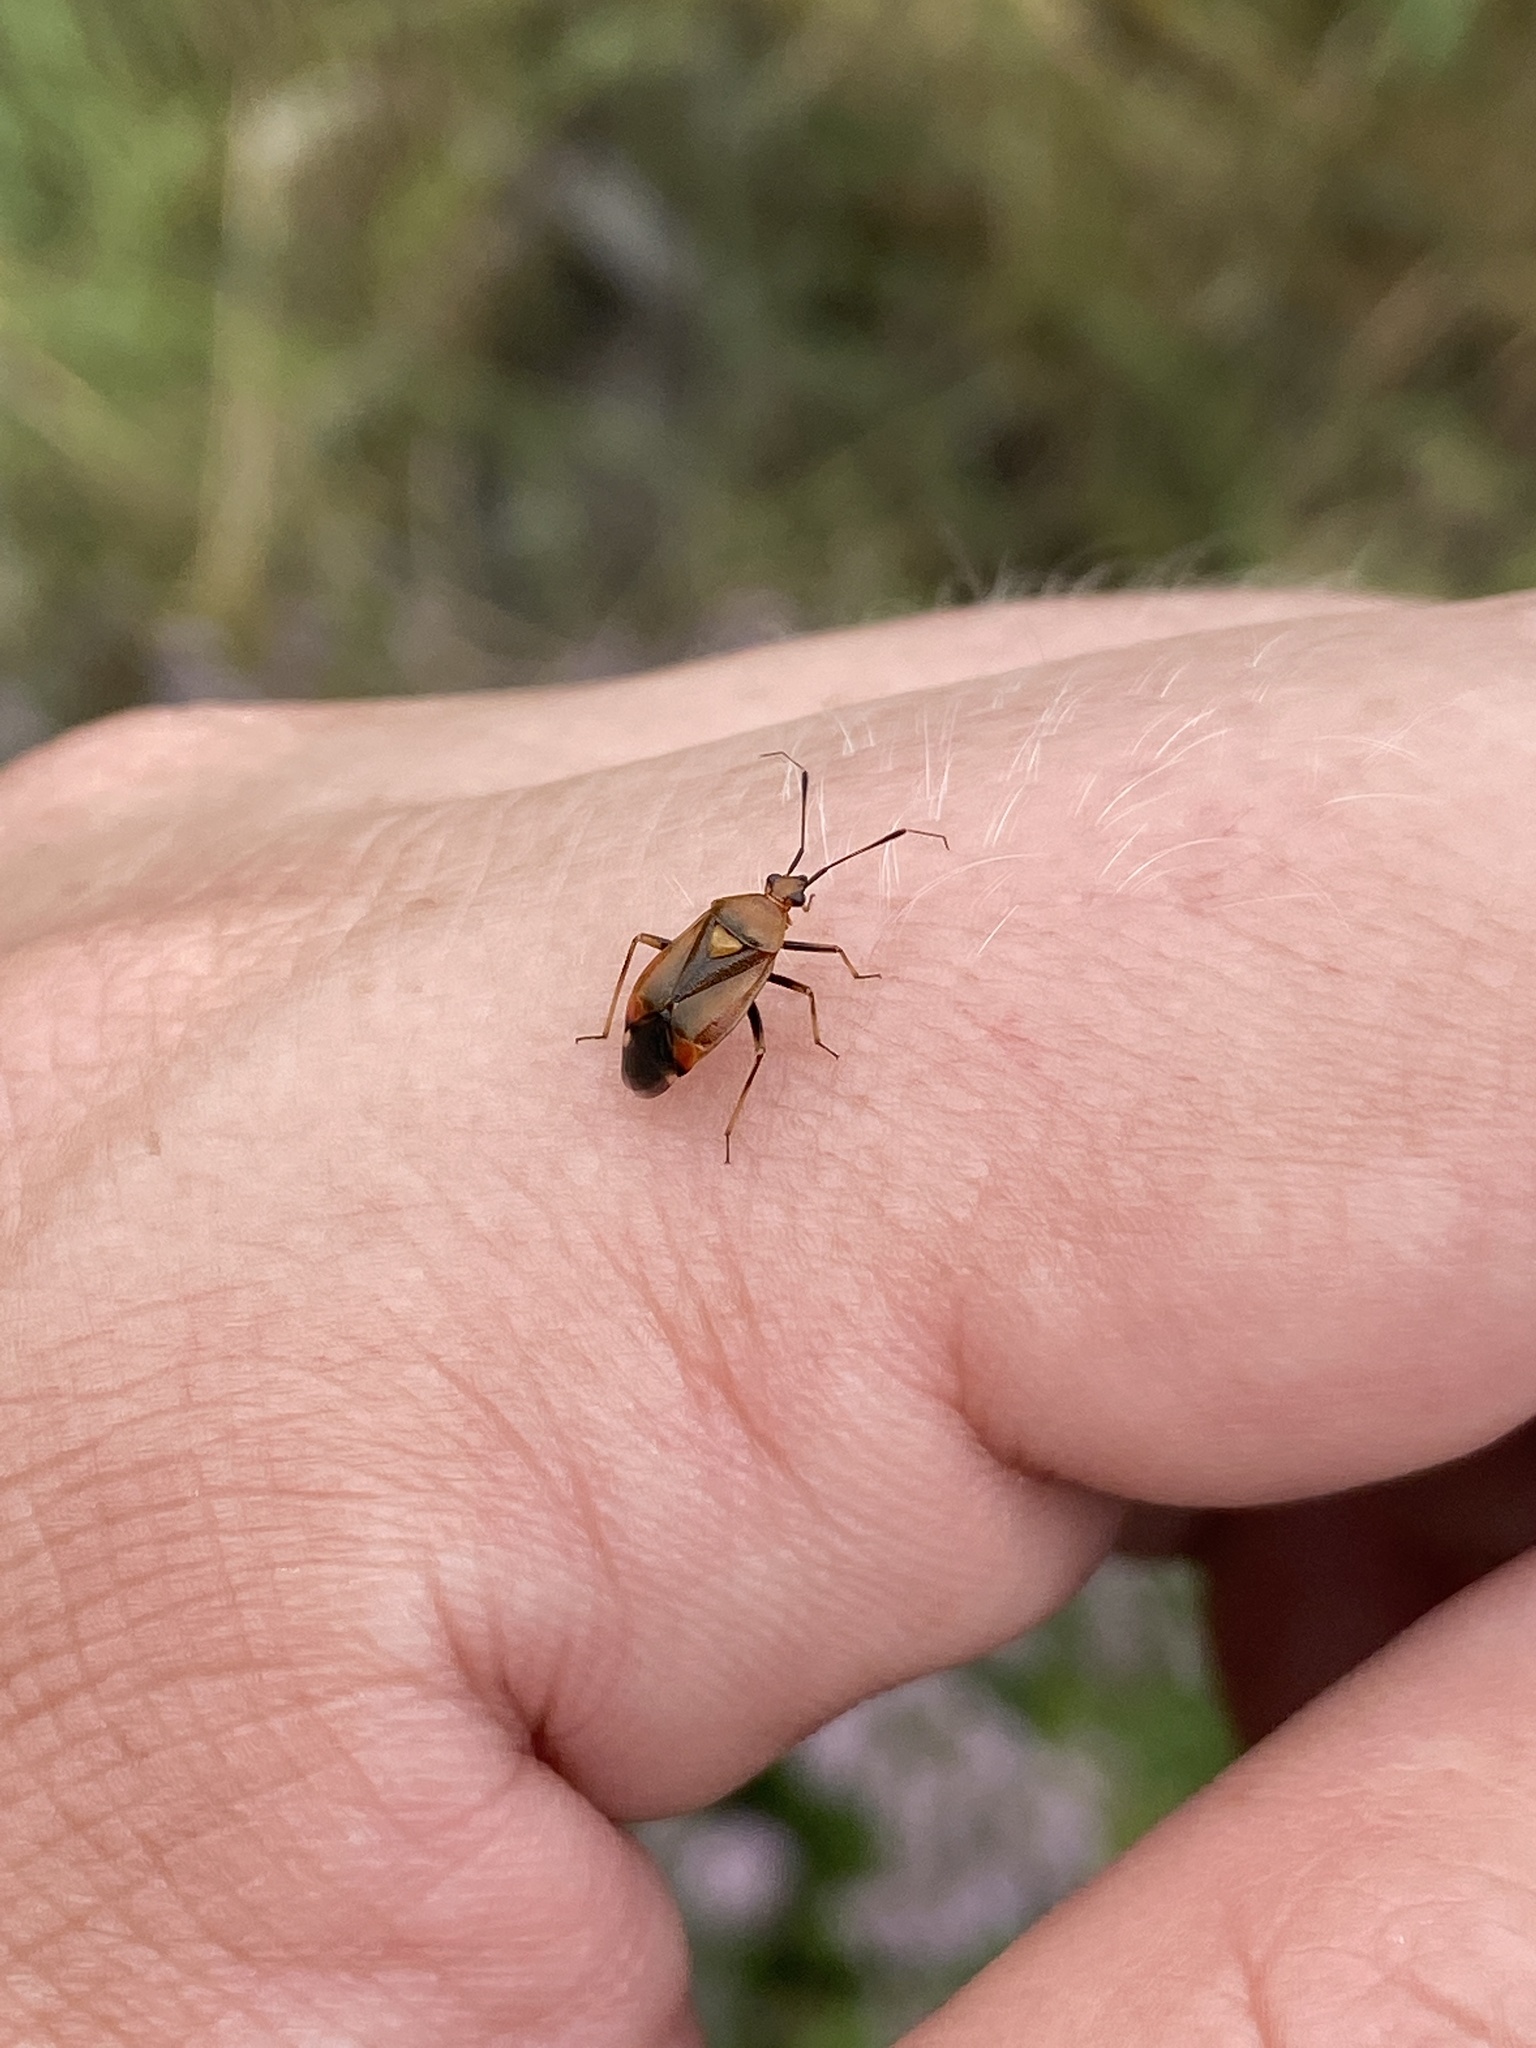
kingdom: Animalia
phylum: Arthropoda
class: Insecta
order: Hemiptera
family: Miridae
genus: Deraeocoris
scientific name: Deraeocoris ruber
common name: Plant bug
